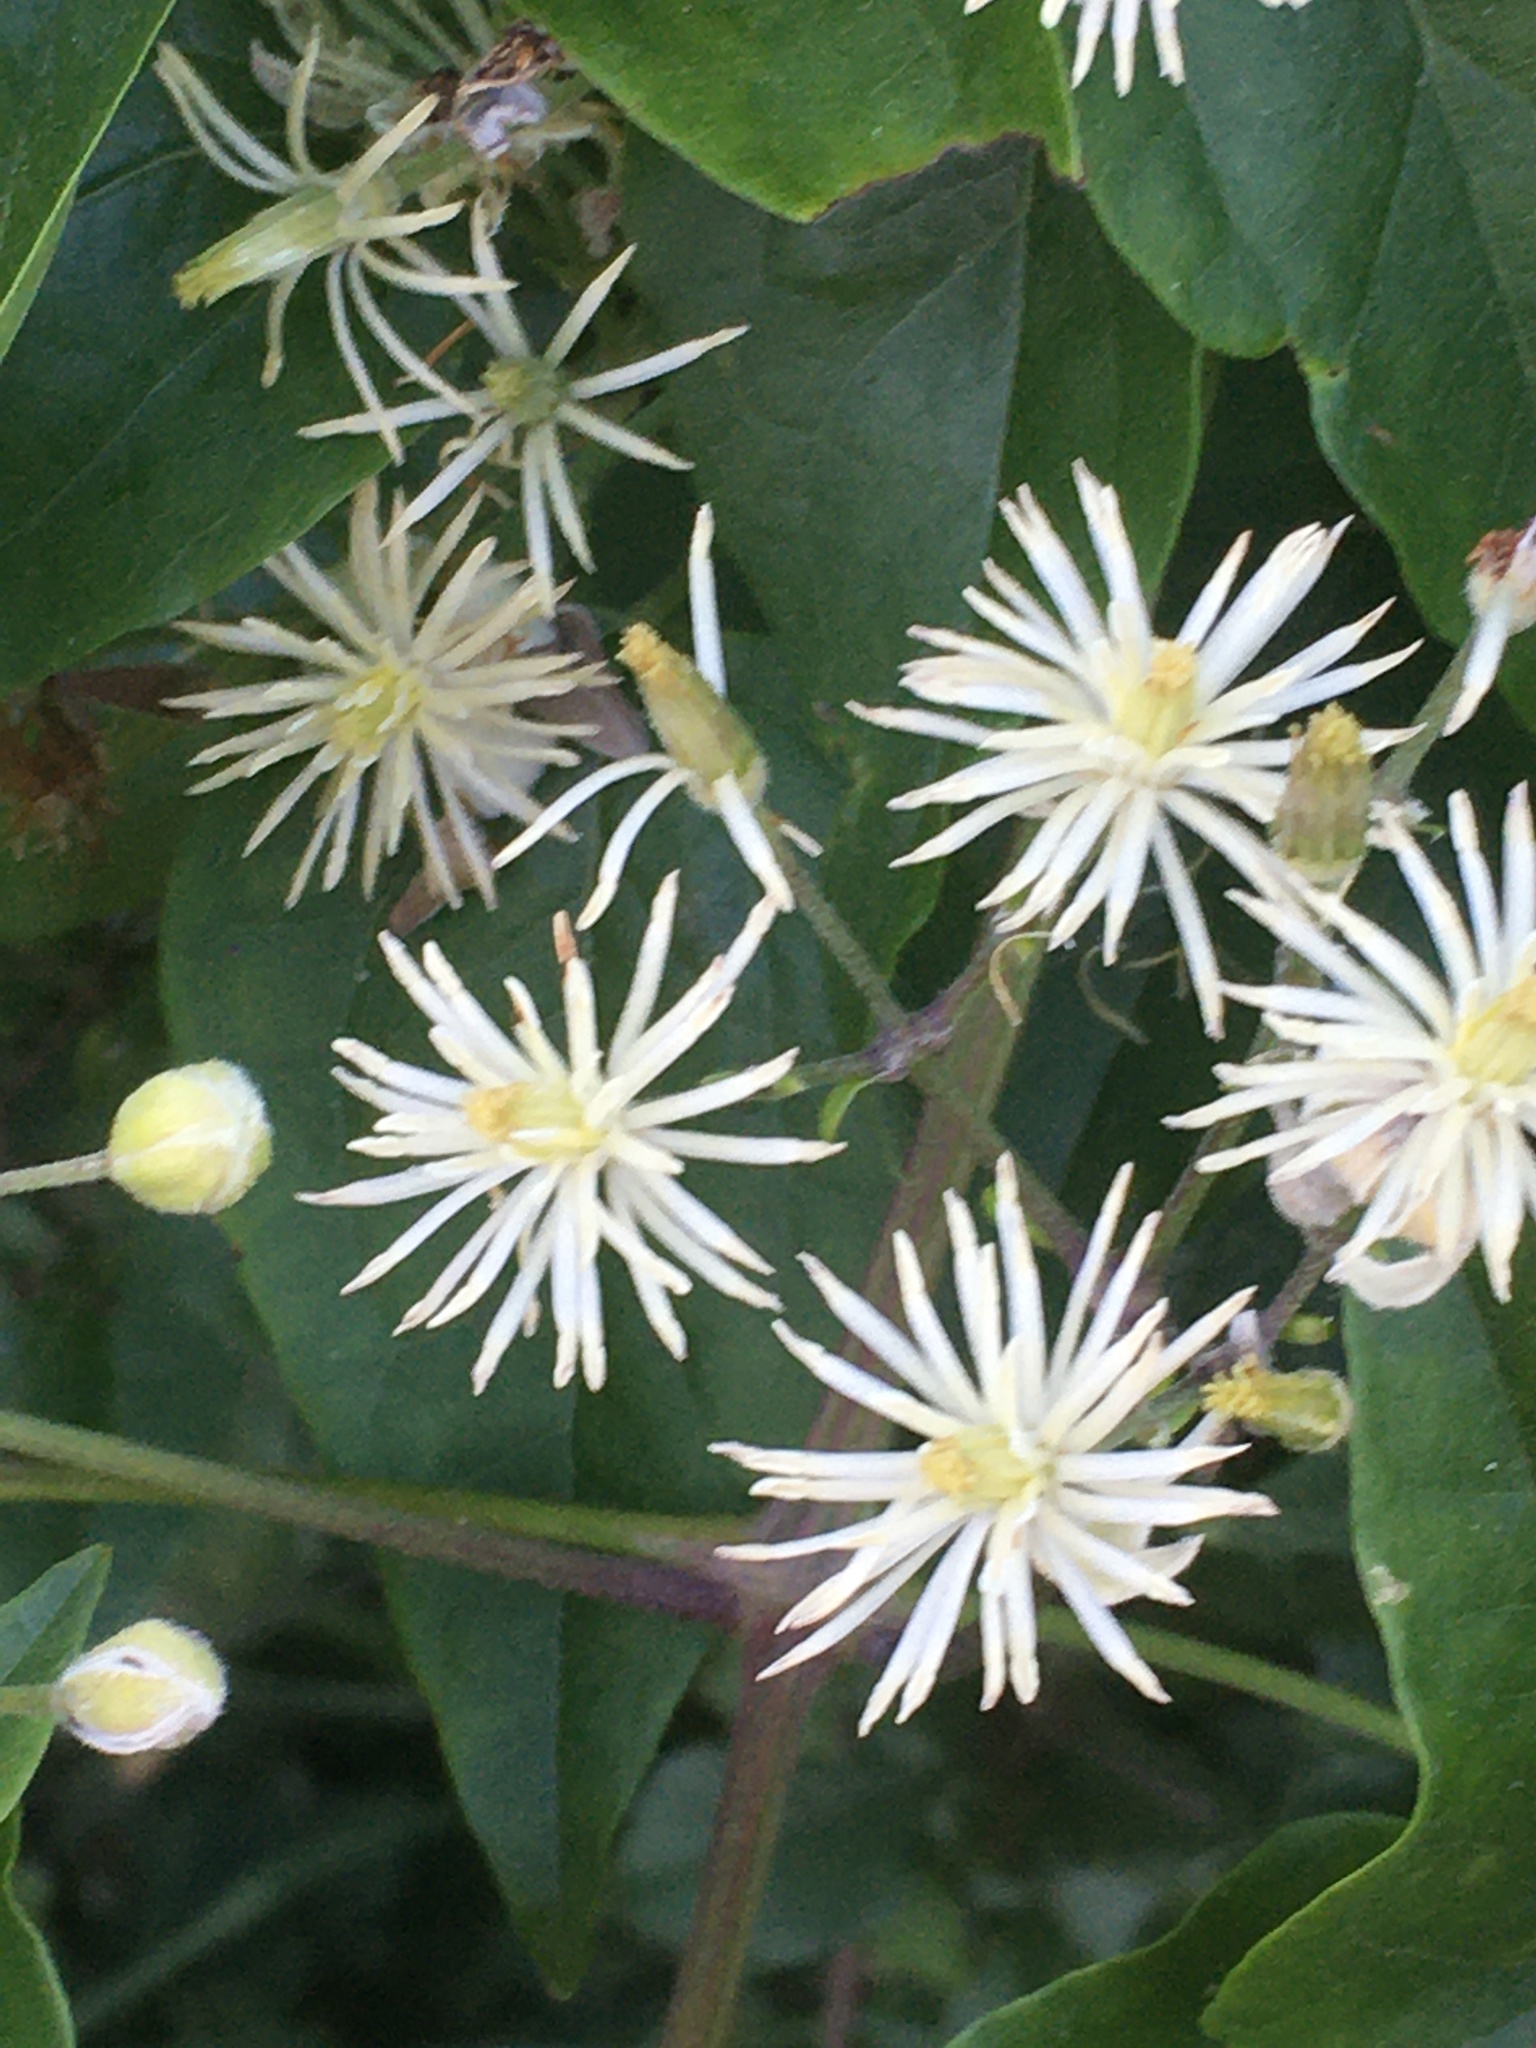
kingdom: Plantae
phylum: Tracheophyta
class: Magnoliopsida
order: Ranunculales
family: Ranunculaceae
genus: Clematis
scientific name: Clematis vitalba
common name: Evergreen clematis
